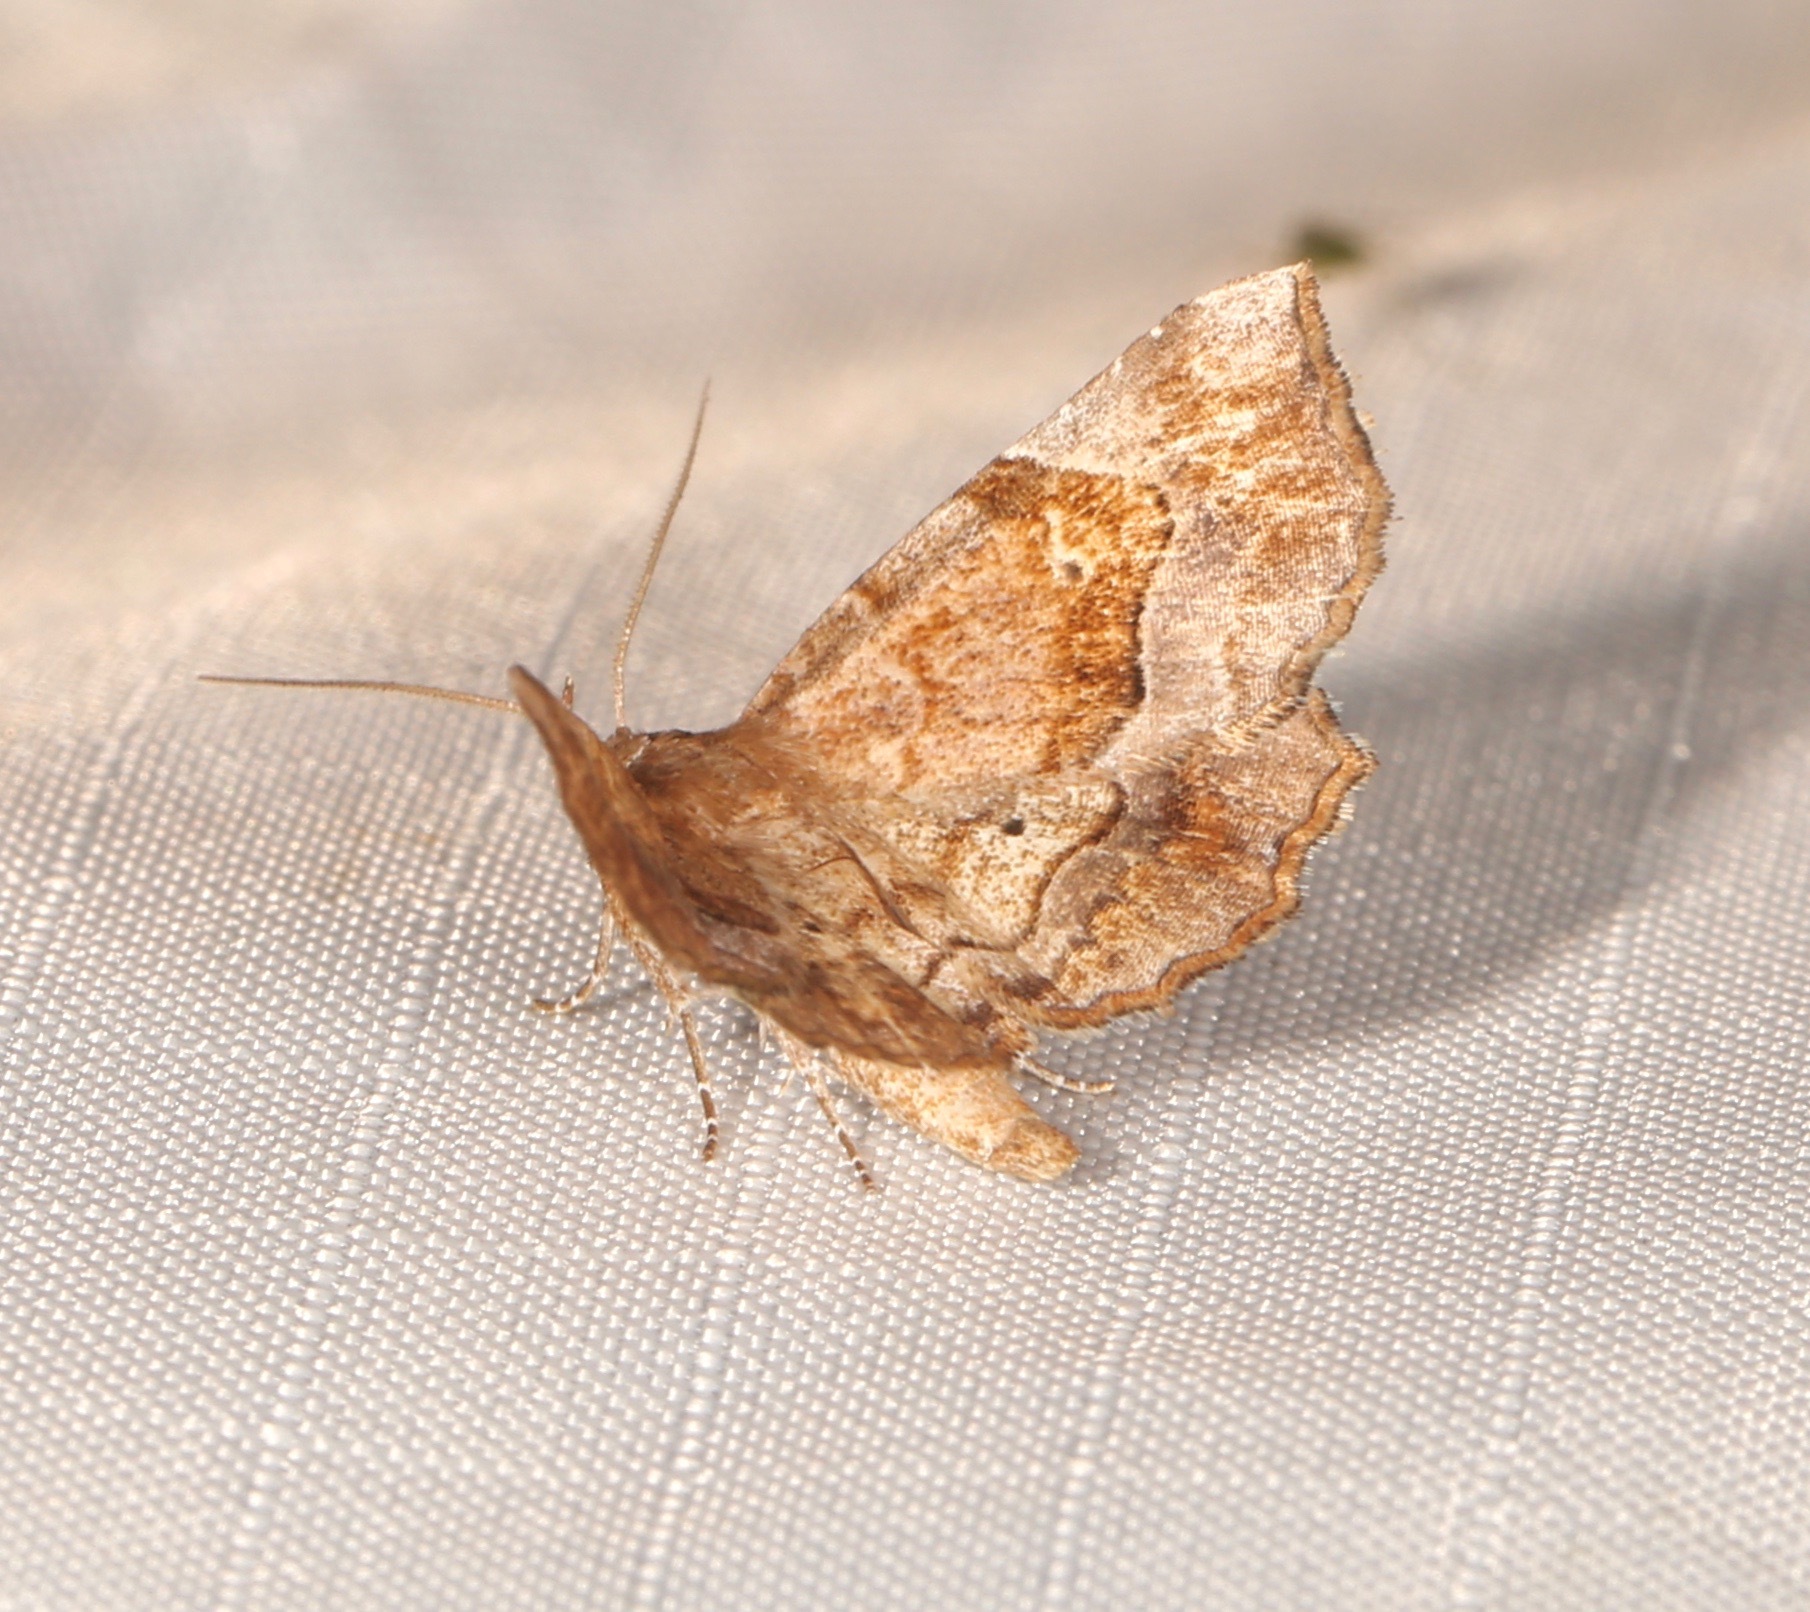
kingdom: Animalia
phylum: Arthropoda
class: Insecta
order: Lepidoptera
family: Erebidae
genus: Pangrapta
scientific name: Pangrapta decoralis
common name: Decorated owlet
